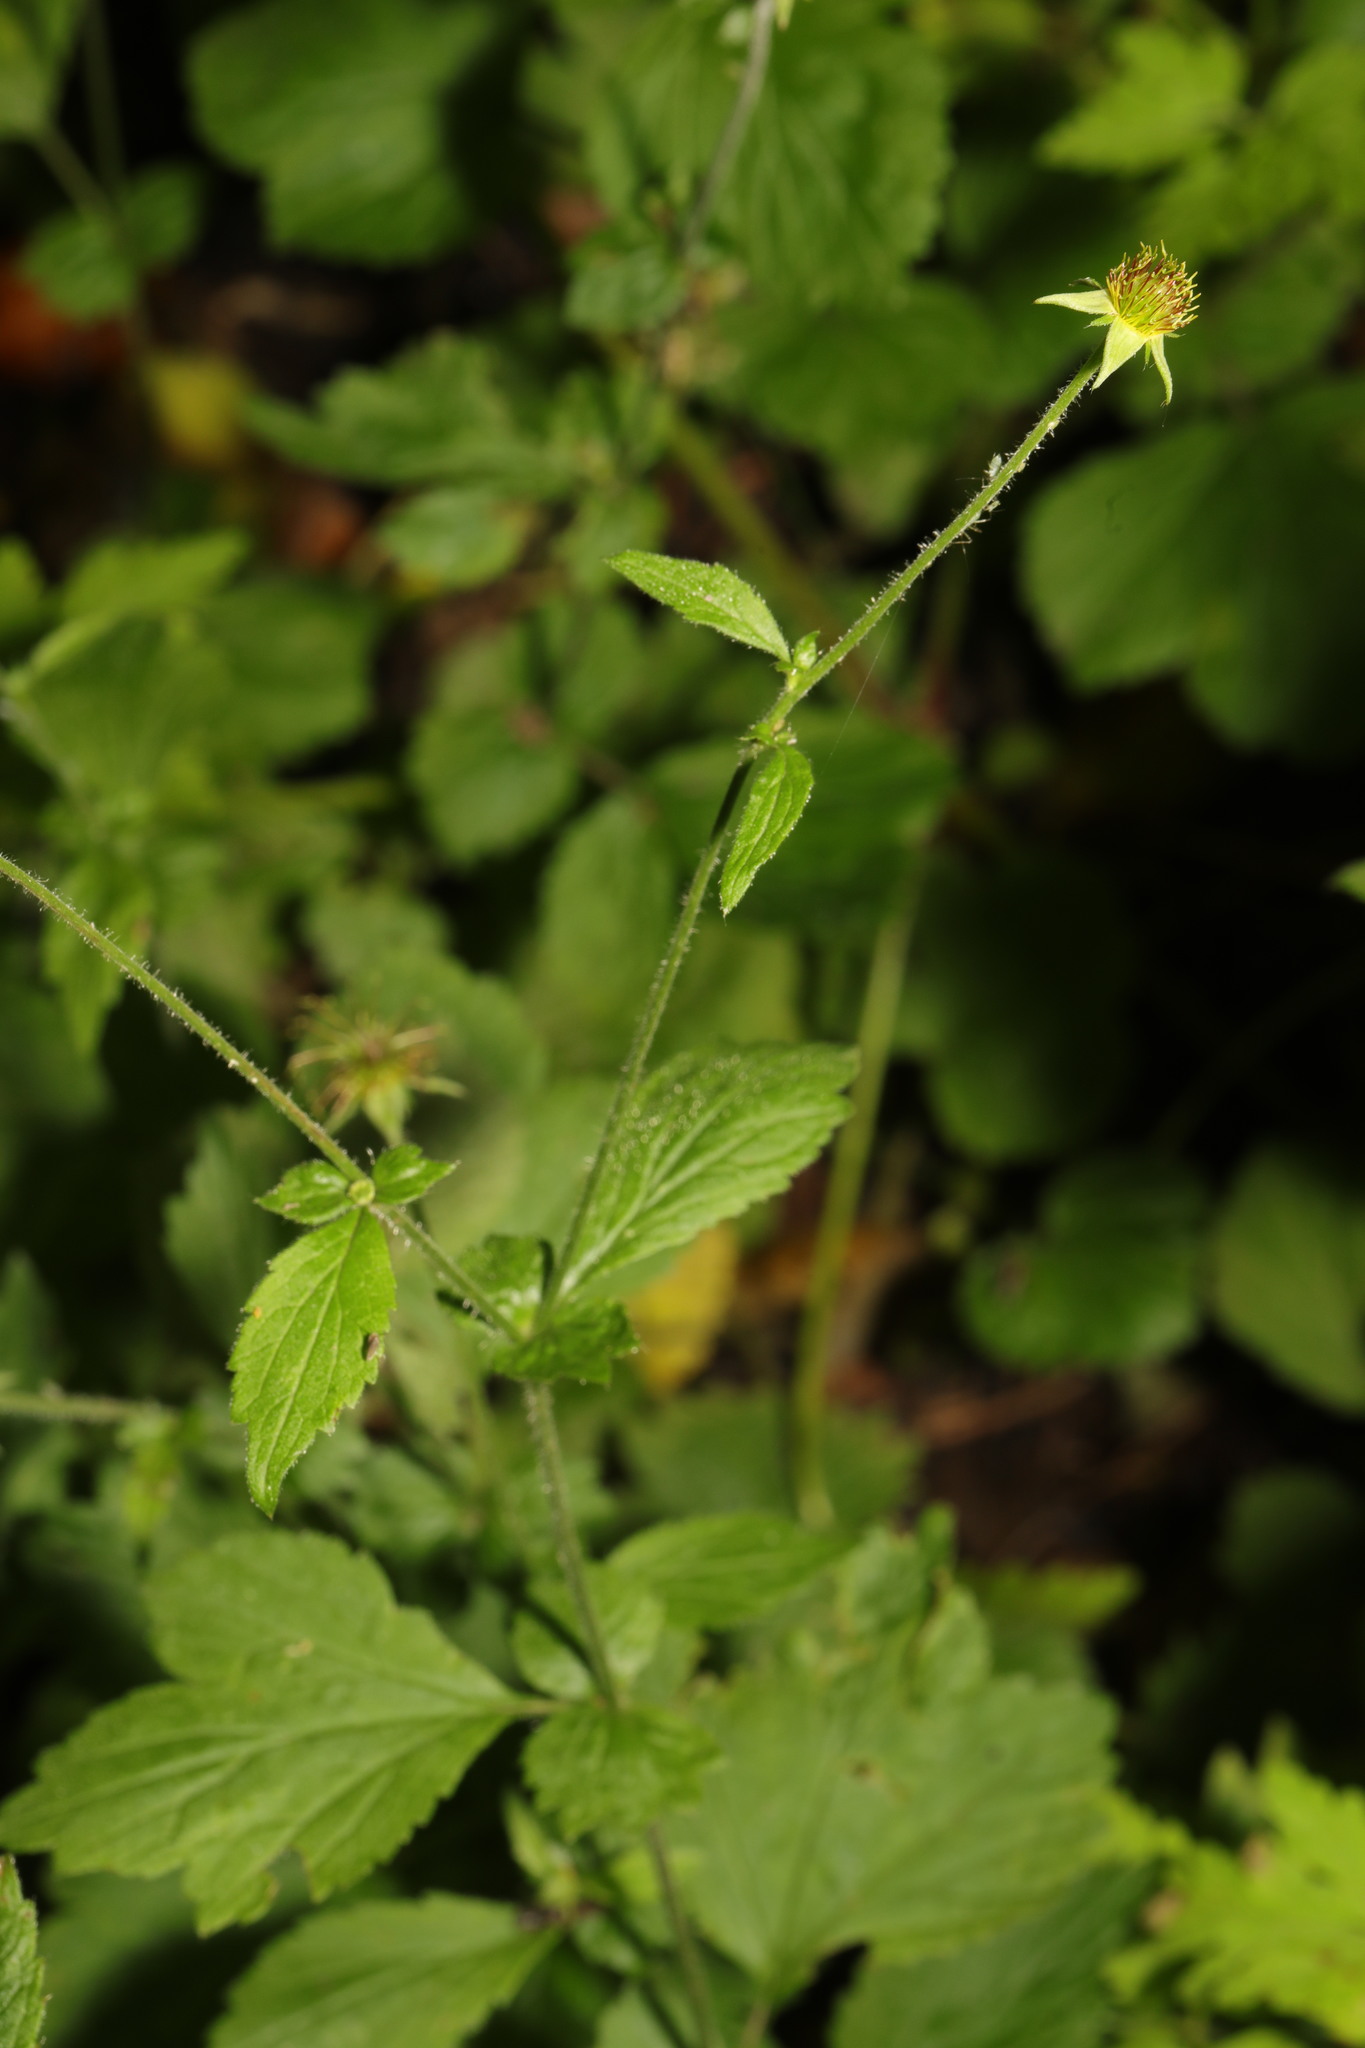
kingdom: Plantae
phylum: Tracheophyta
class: Magnoliopsida
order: Rosales
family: Rosaceae
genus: Geum
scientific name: Geum urbanum
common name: Wood avens
